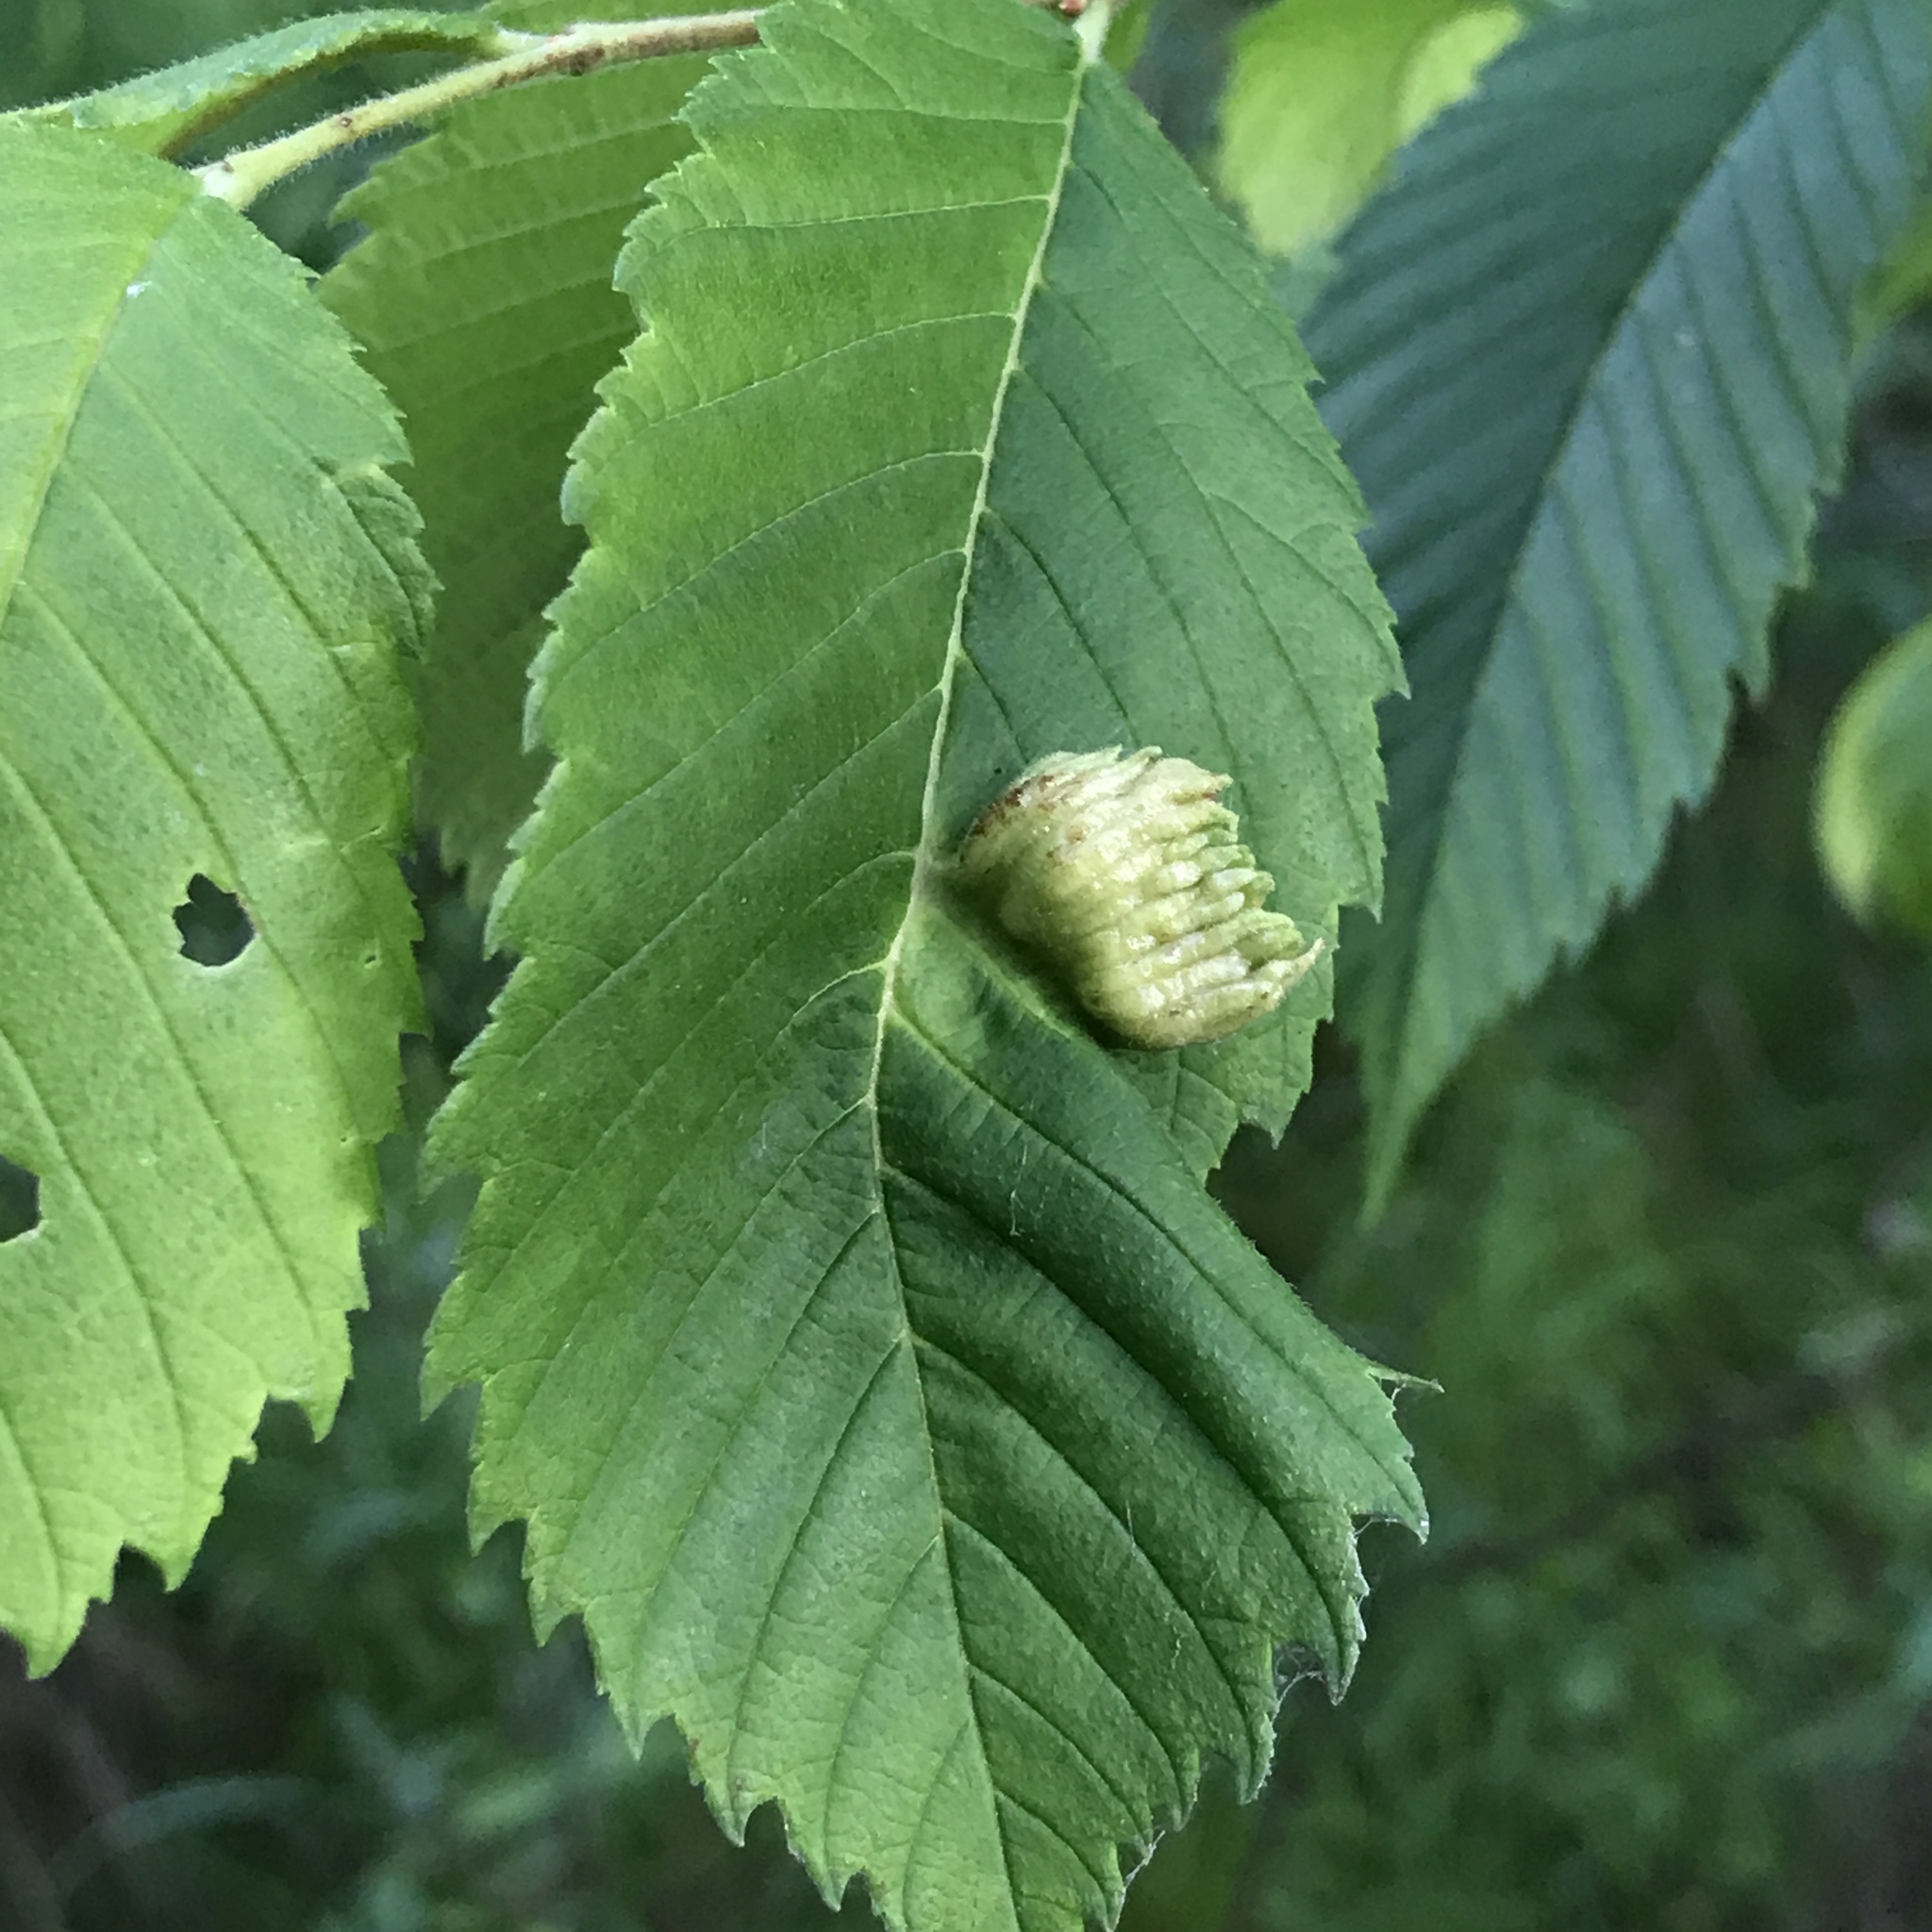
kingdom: Animalia
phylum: Arthropoda
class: Insecta
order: Hemiptera
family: Aphididae
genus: Colopha
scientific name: Colopha ulmicola
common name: Elm cockscombgall aphid
